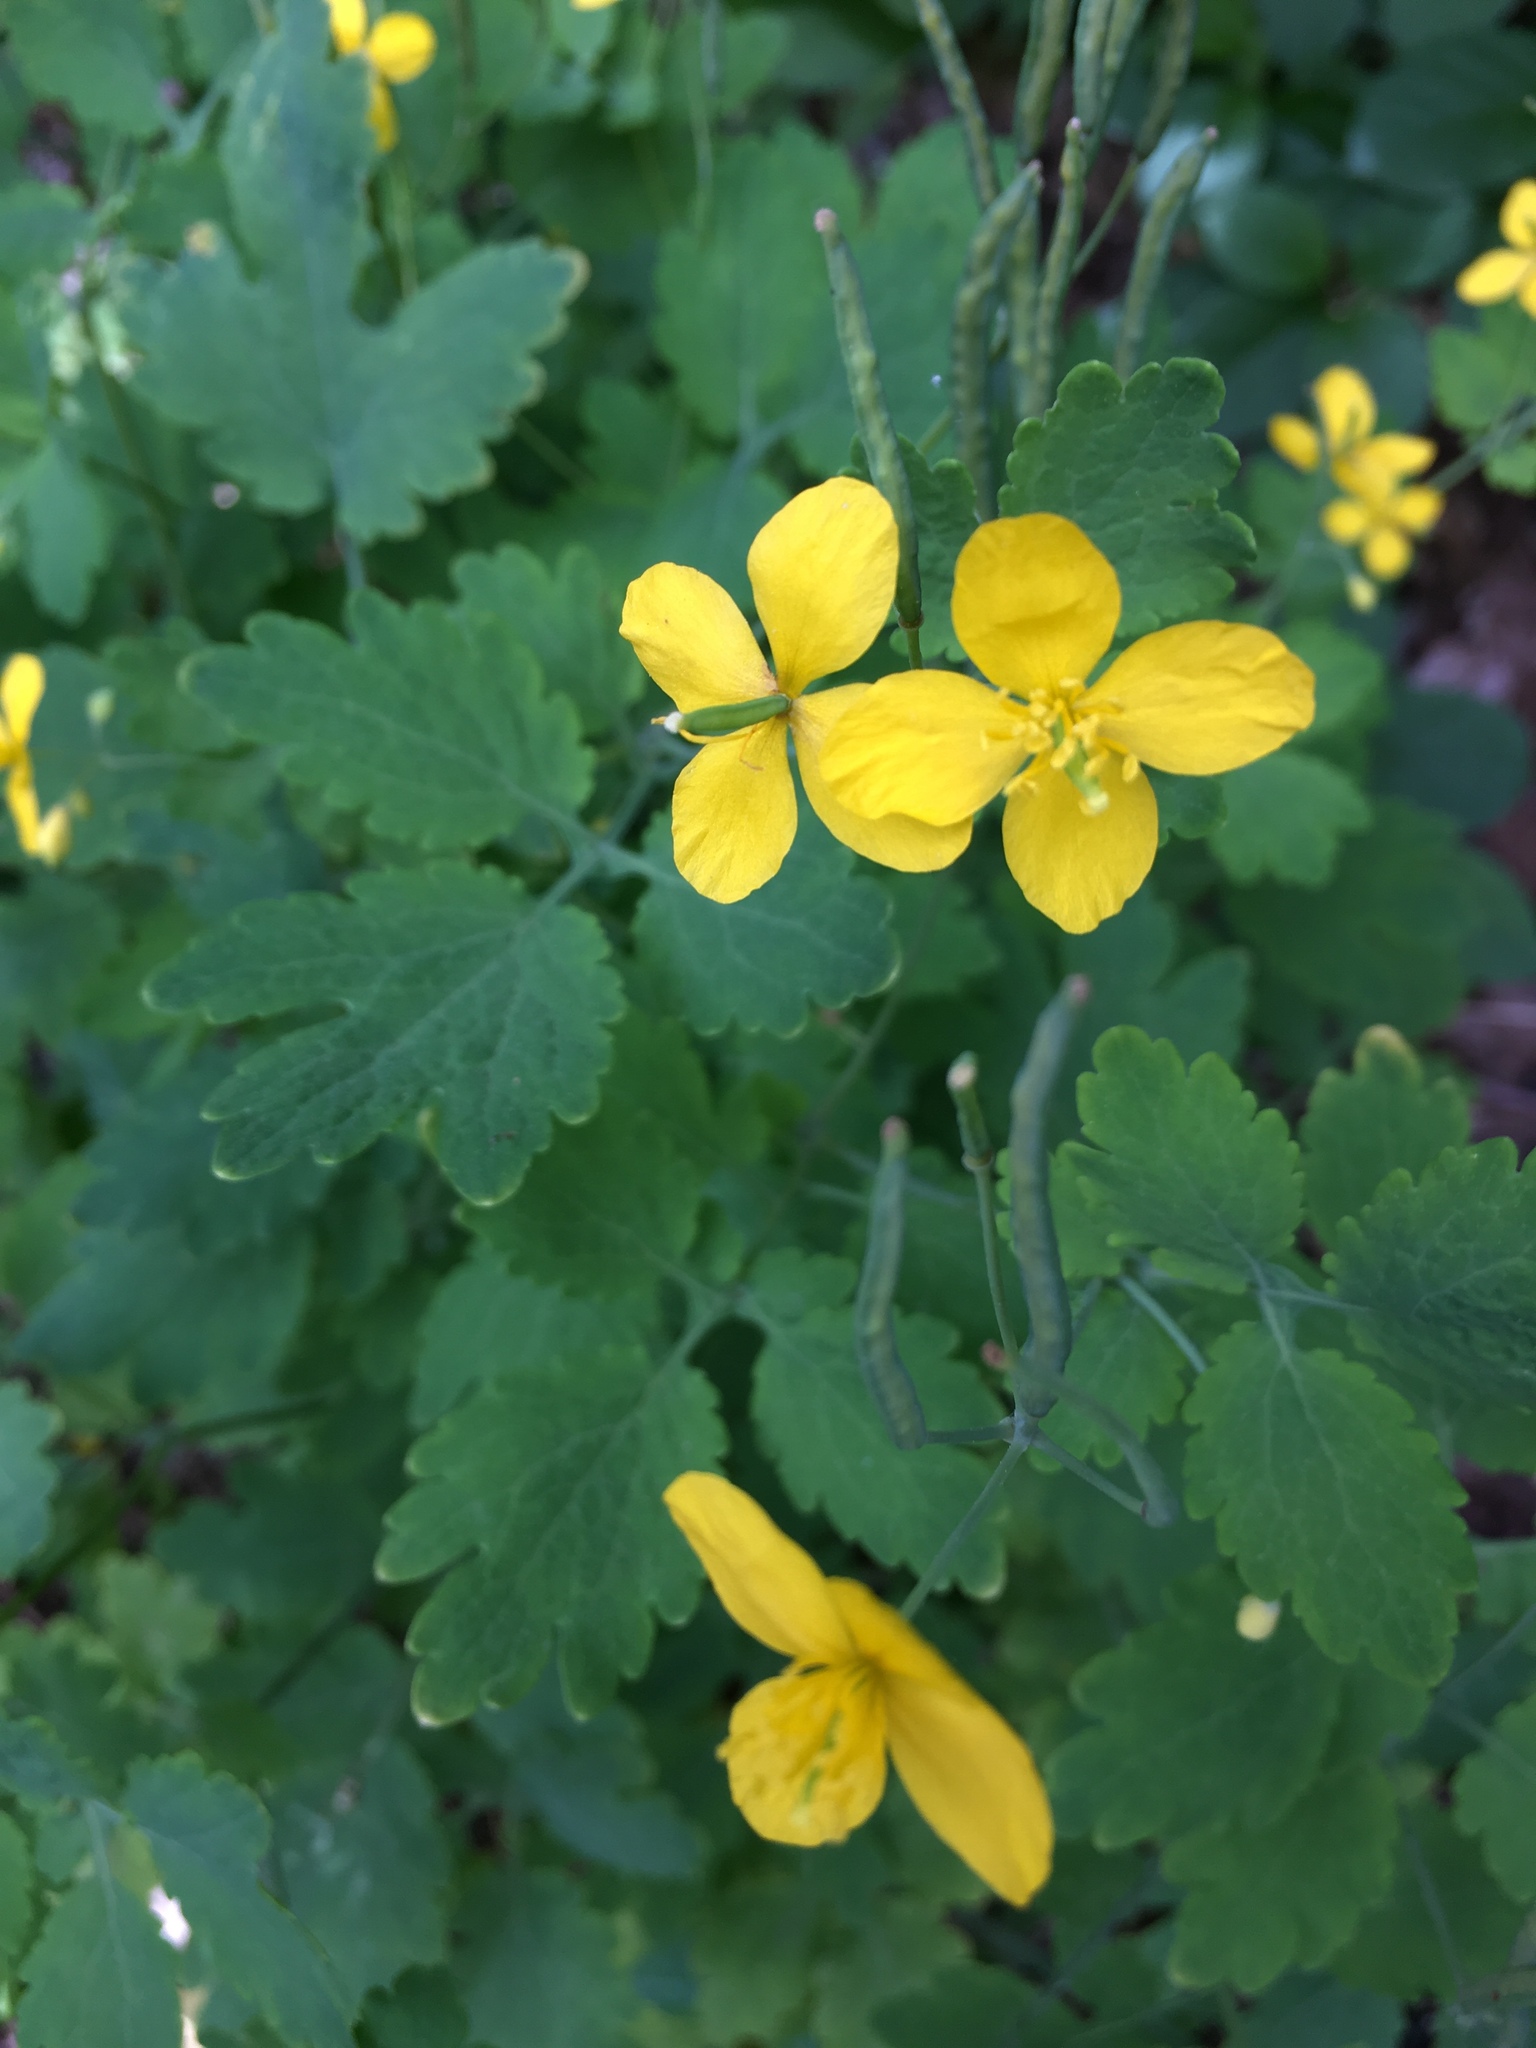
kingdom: Plantae
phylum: Tracheophyta
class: Magnoliopsida
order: Ranunculales
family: Papaveraceae
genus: Chelidonium
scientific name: Chelidonium majus
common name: Greater celandine
